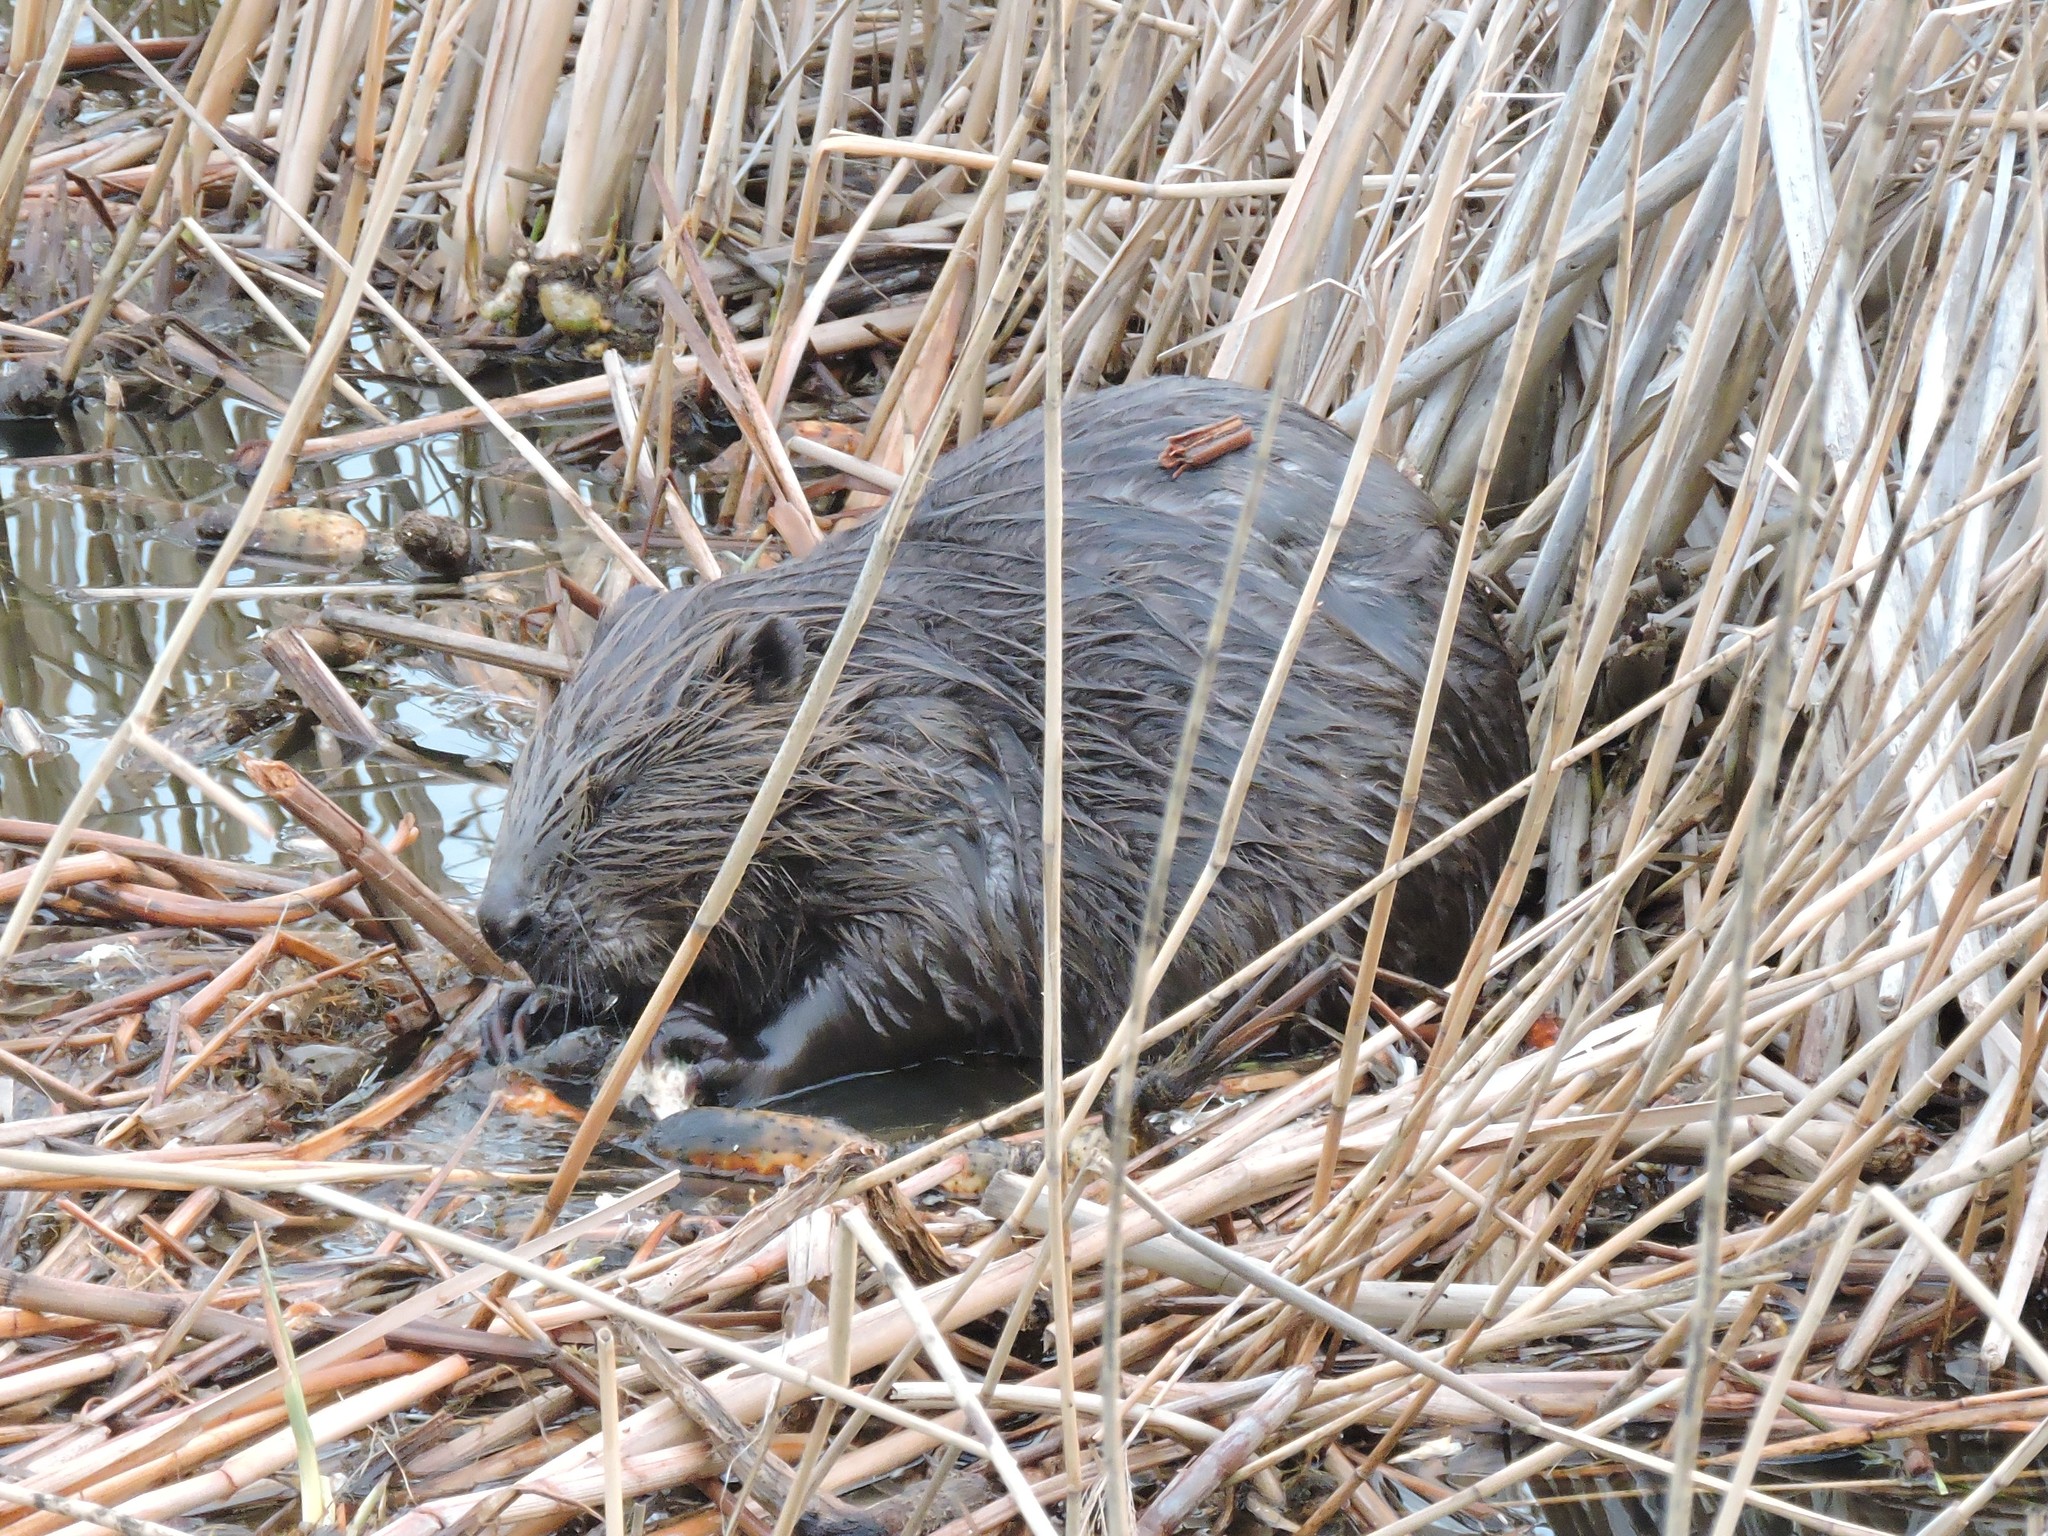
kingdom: Animalia
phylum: Chordata
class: Mammalia
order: Rodentia
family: Castoridae
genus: Castor
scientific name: Castor fiber
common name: Eurasian beaver
